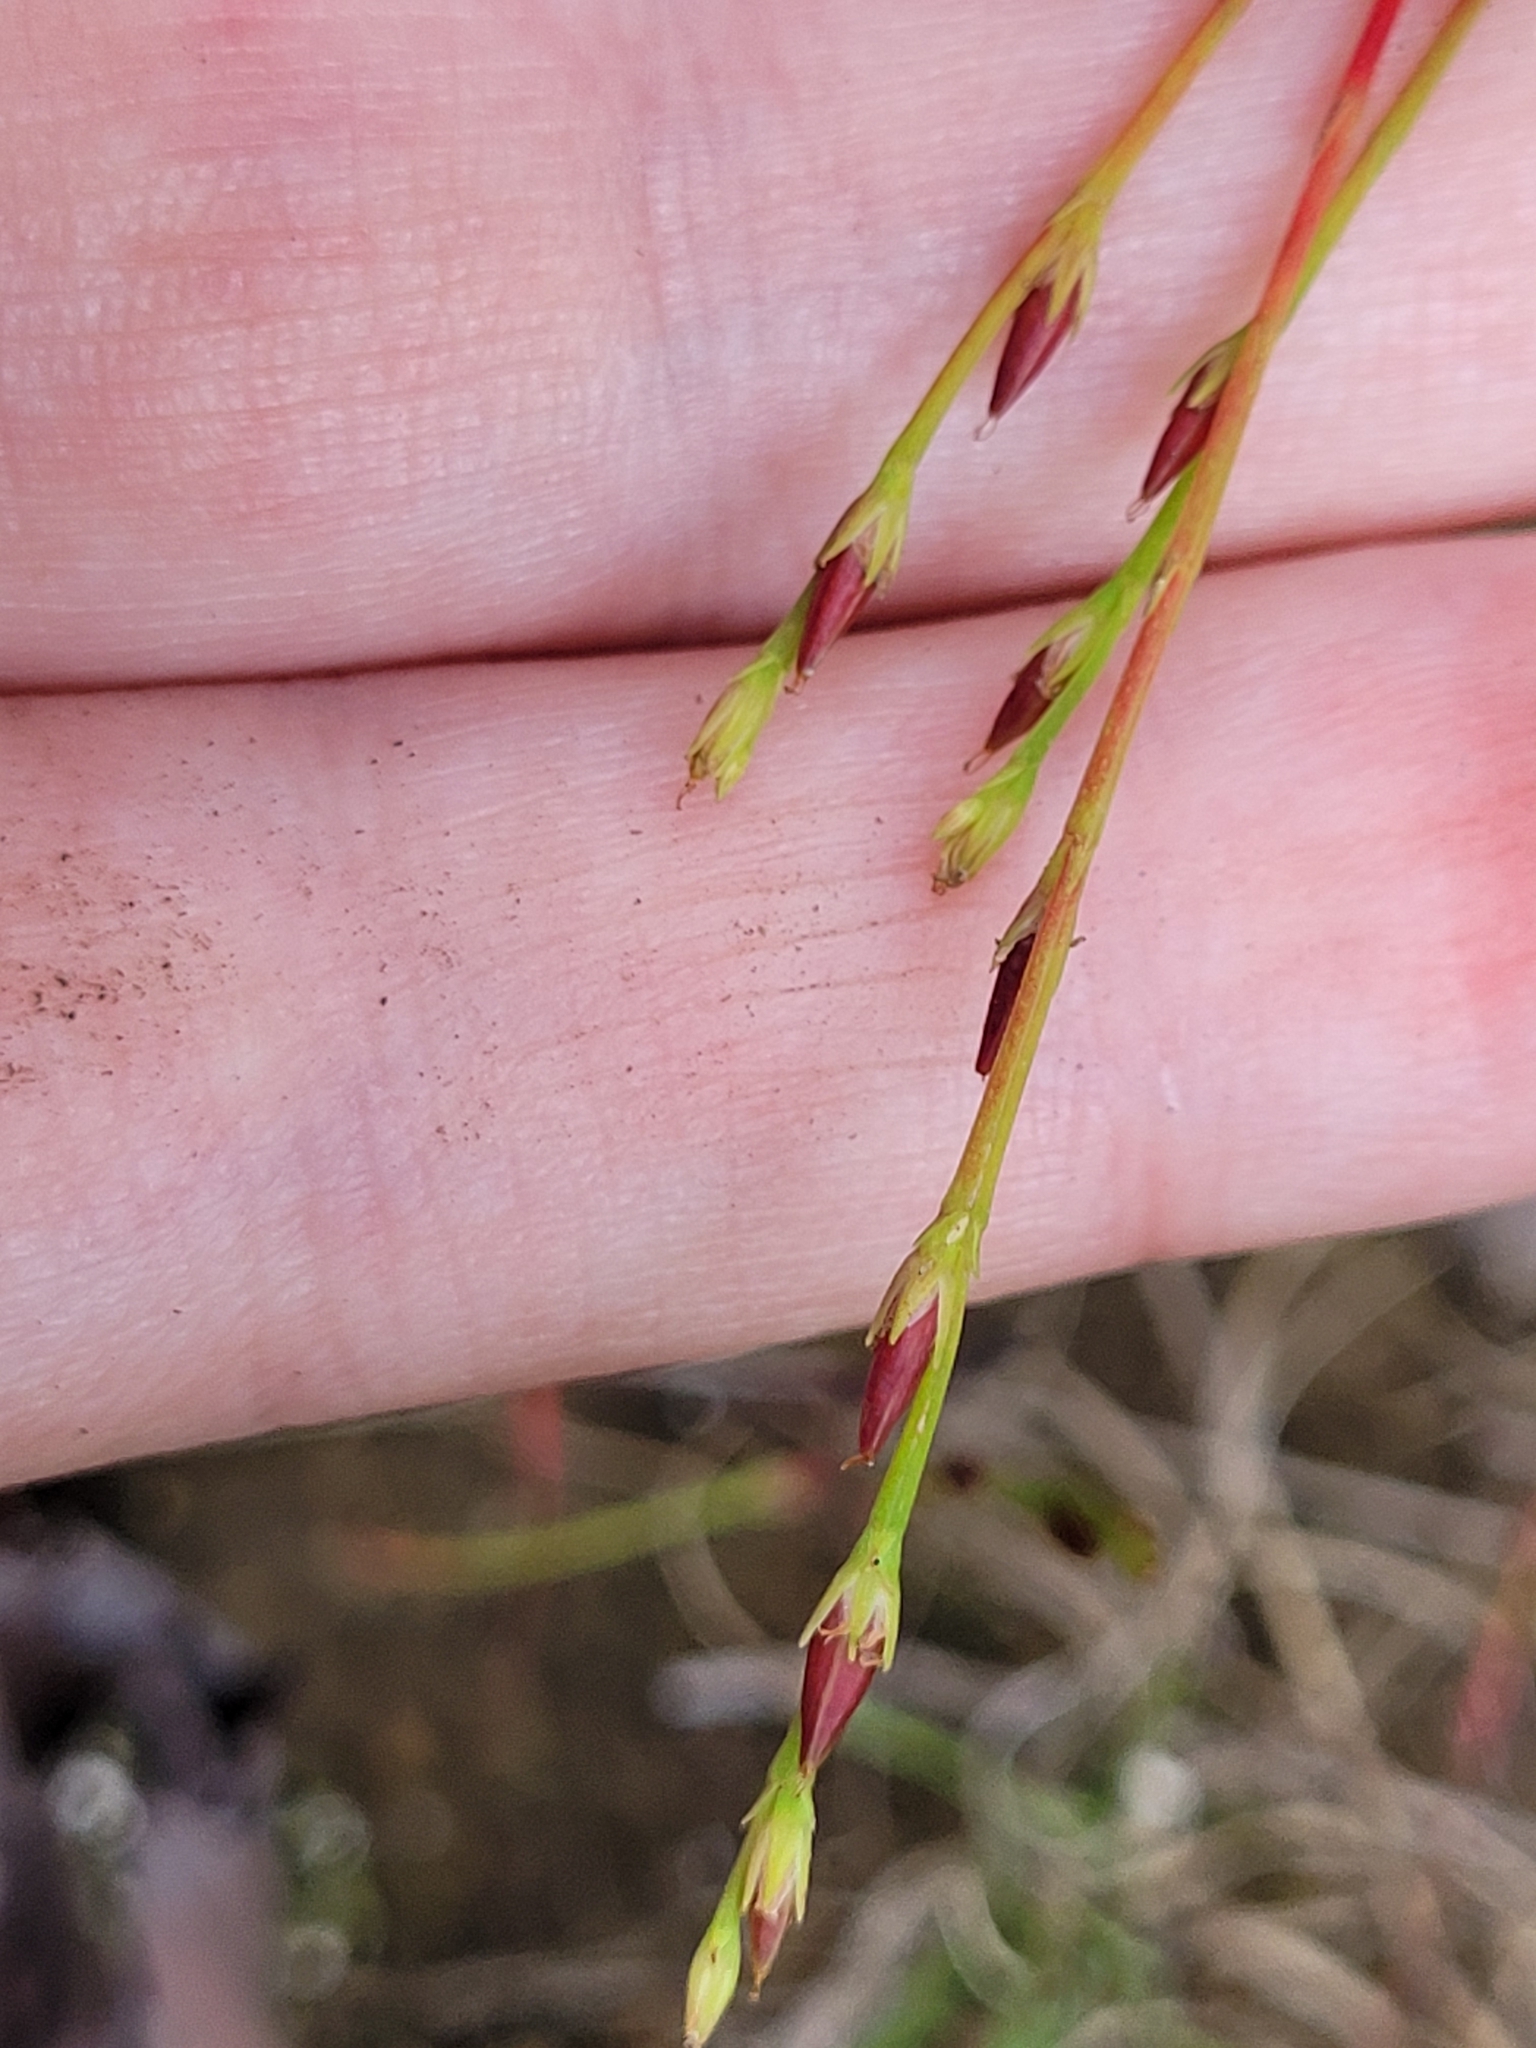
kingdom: Plantae
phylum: Tracheophyta
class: Magnoliopsida
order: Malpighiales
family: Hypericaceae
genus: Hypericum
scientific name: Hypericum gentianoides
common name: Gentian-leaved st. john's-wort
